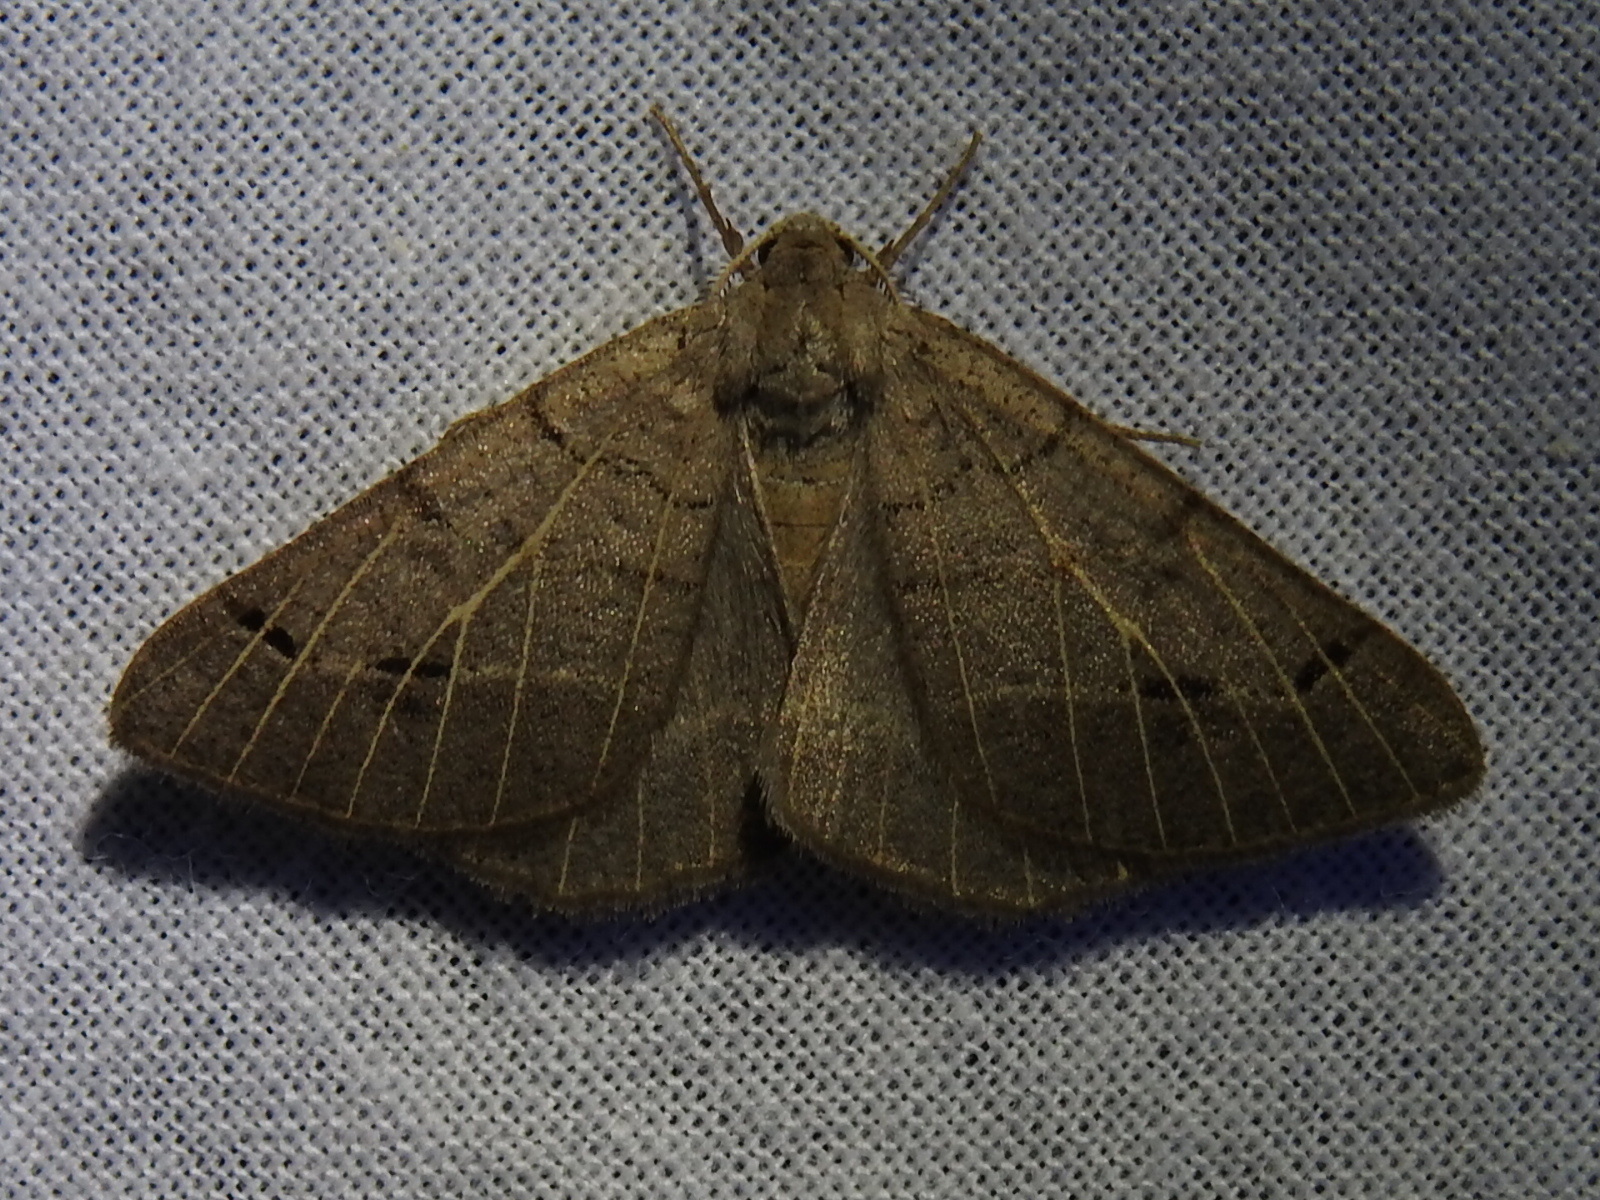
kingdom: Animalia
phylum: Arthropoda
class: Insecta
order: Lepidoptera
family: Geometridae
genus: Isturgia
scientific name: Isturgia dislocaria
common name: Pale-viened enconista
